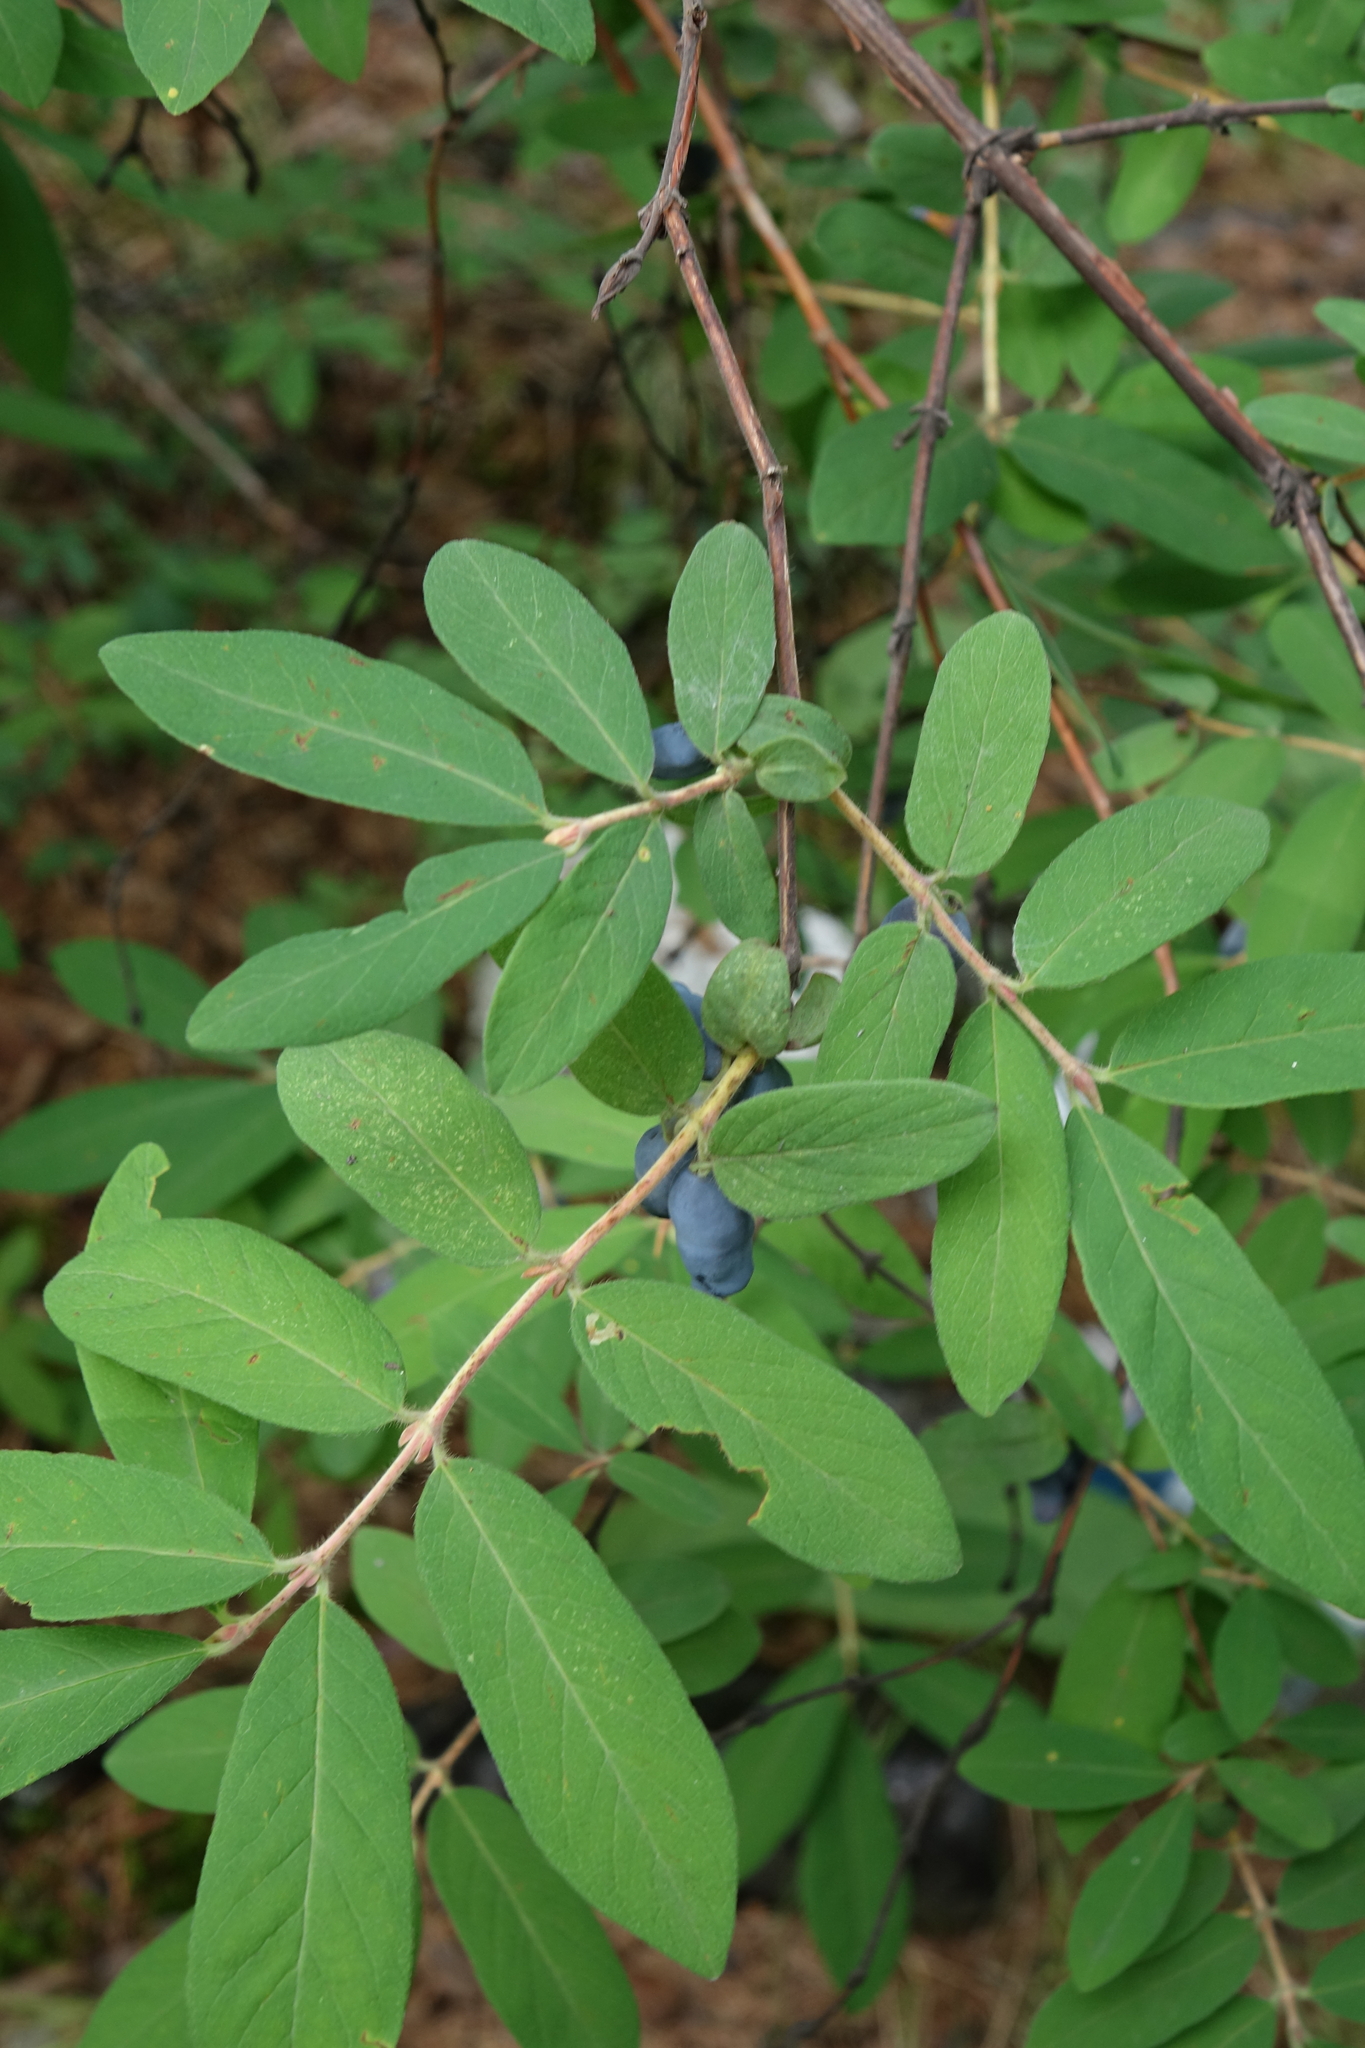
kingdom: Plantae
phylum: Tracheophyta
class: Magnoliopsida
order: Dipsacales
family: Caprifoliaceae
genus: Lonicera
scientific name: Lonicera caerulea
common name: Blue honeysuckle
